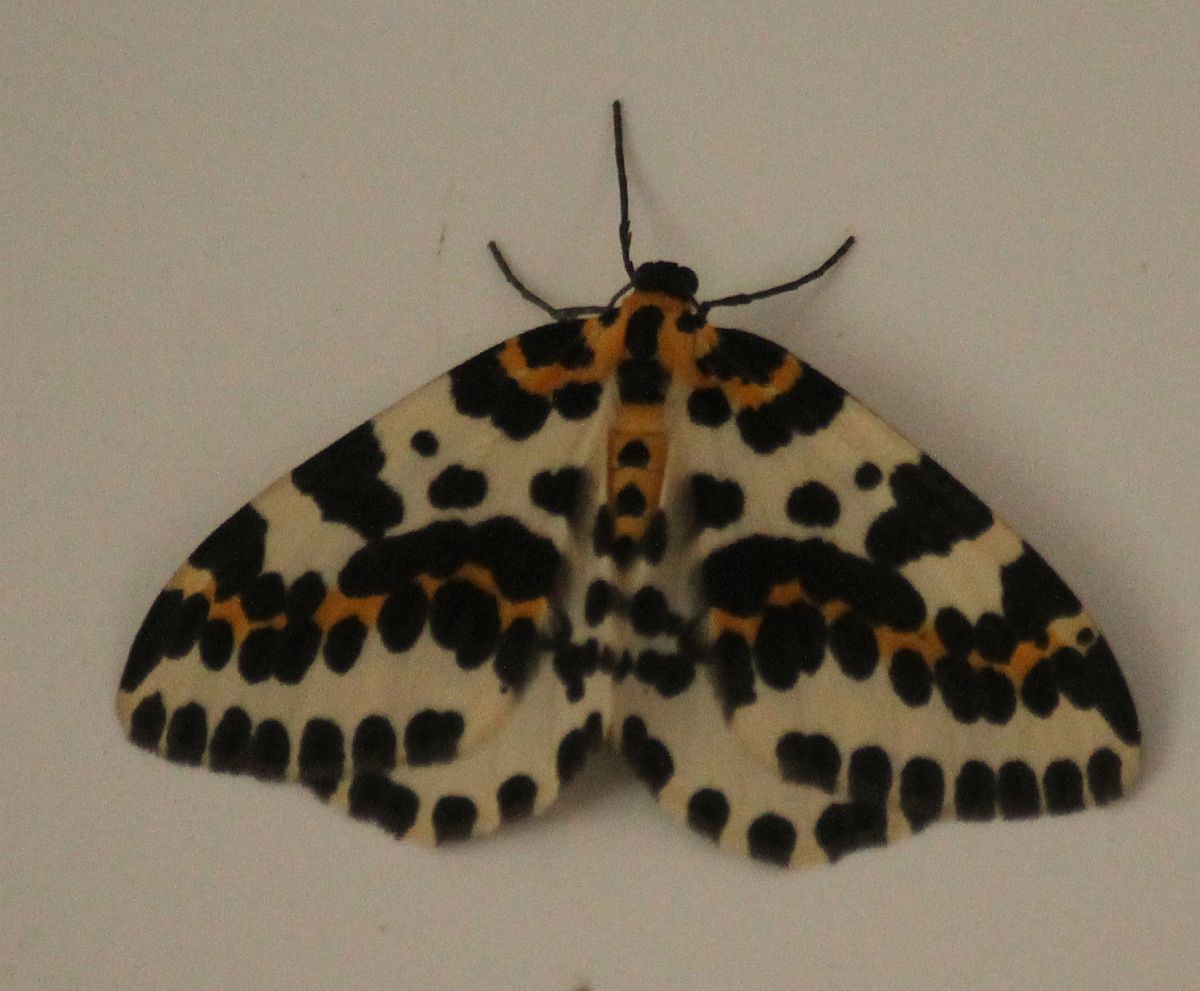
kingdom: Animalia
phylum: Arthropoda
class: Insecta
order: Lepidoptera
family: Geometridae
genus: Abraxas
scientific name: Abraxas grossulariata
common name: Magpie
